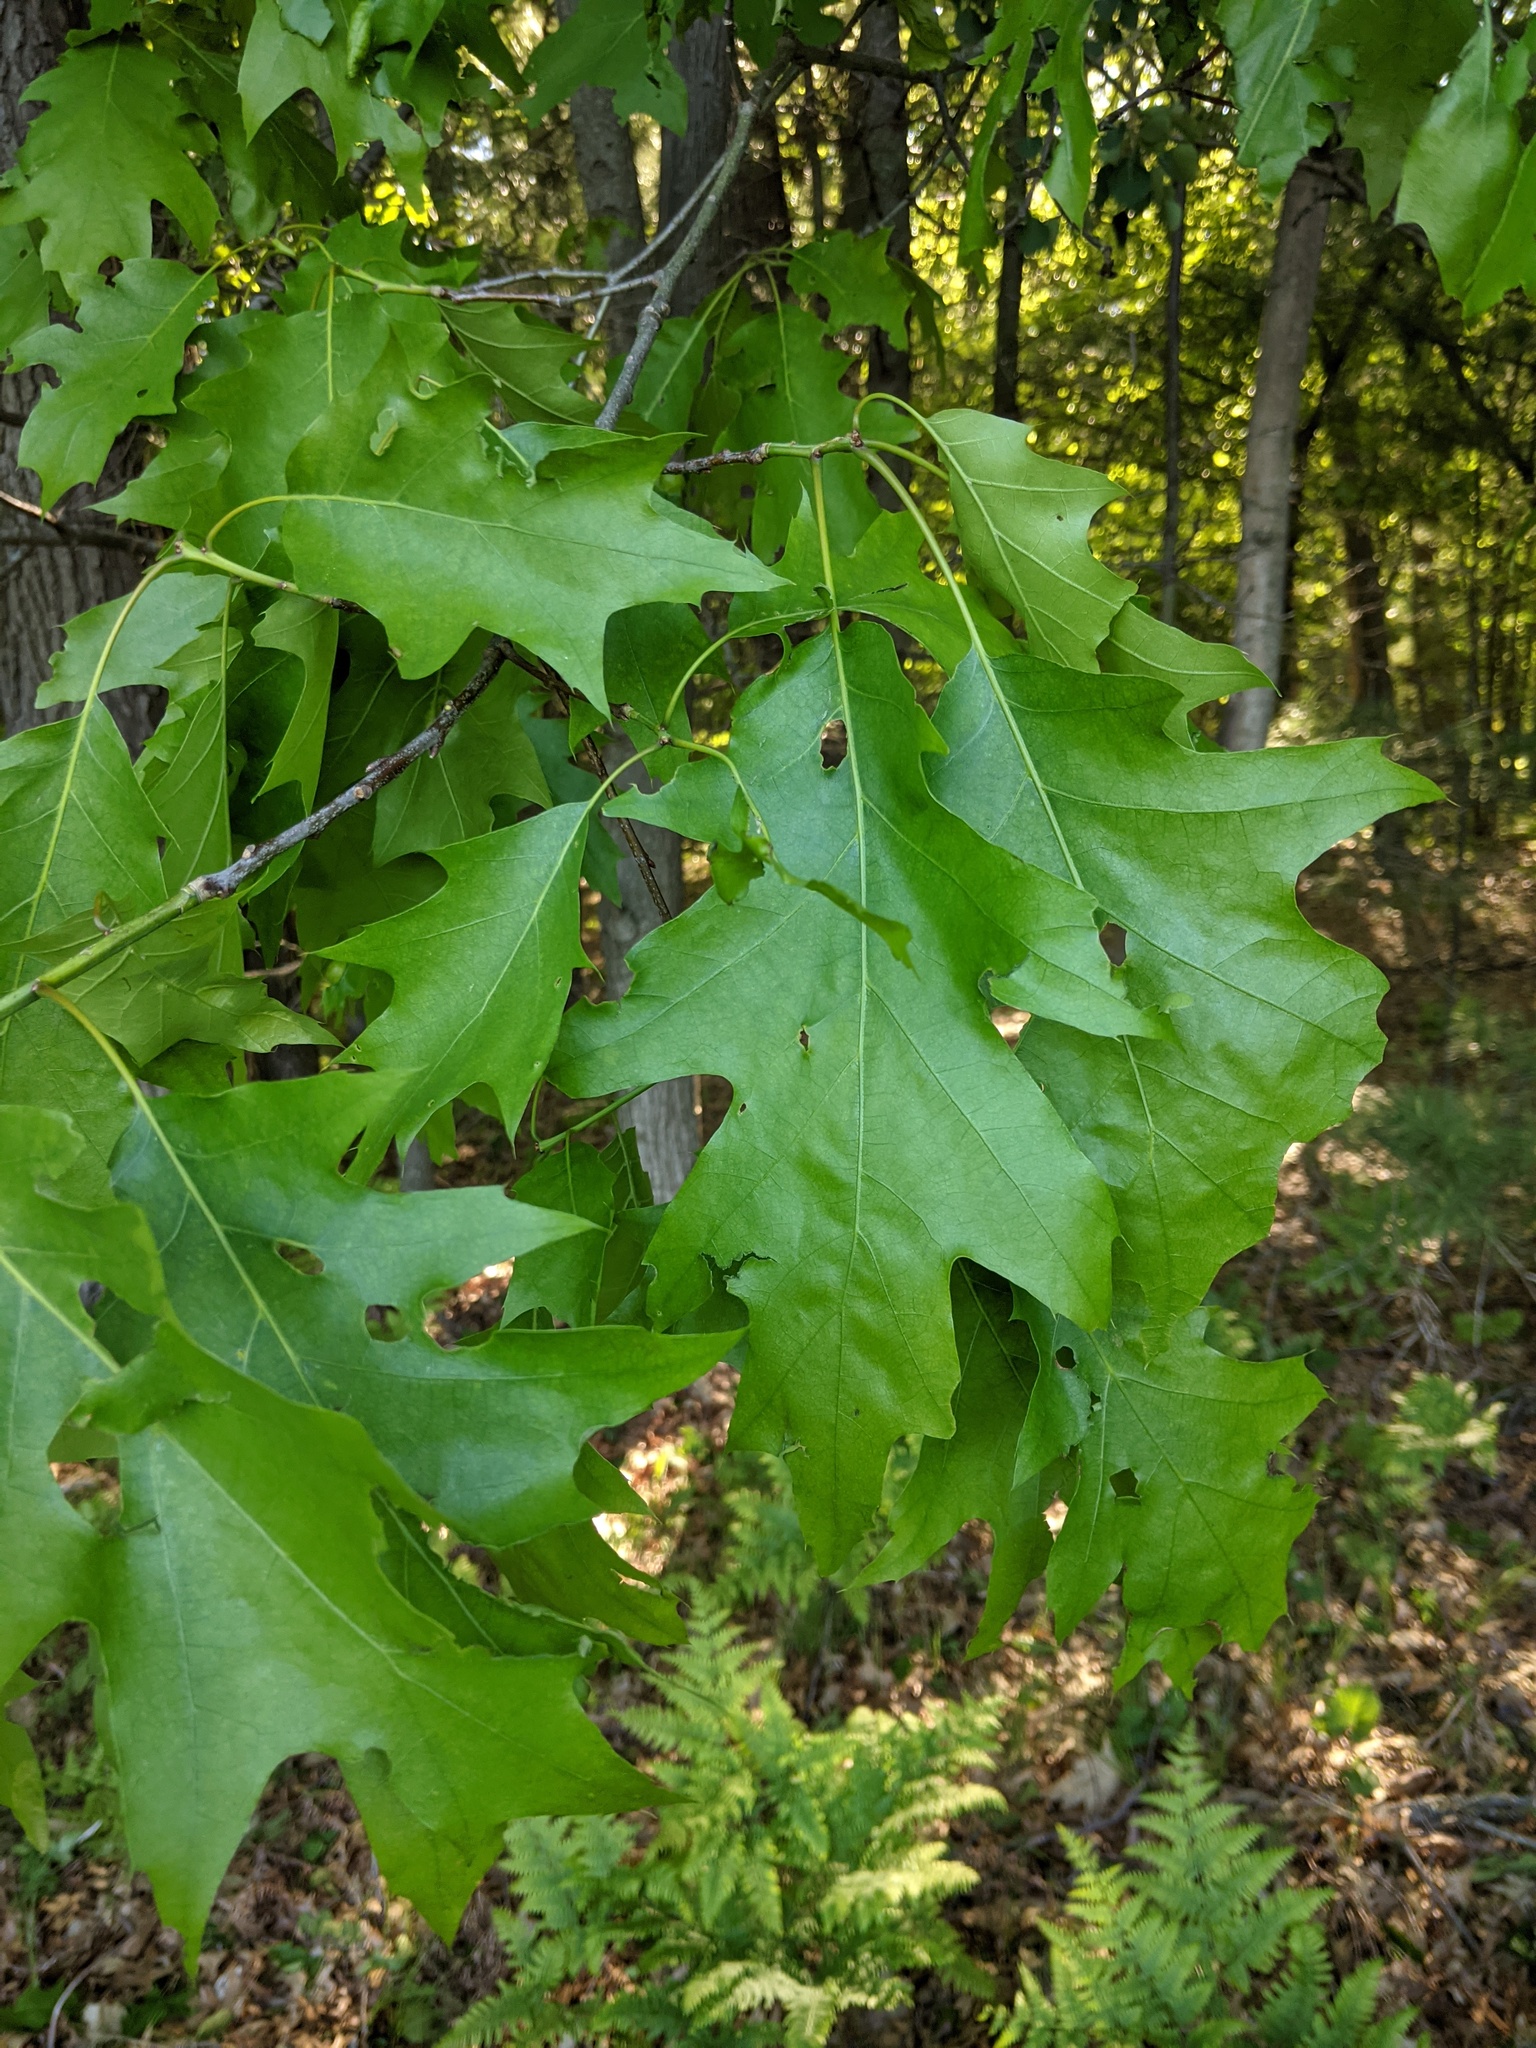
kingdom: Plantae
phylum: Tracheophyta
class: Magnoliopsida
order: Fagales
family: Fagaceae
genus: Quercus
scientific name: Quercus rubra
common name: Red oak
